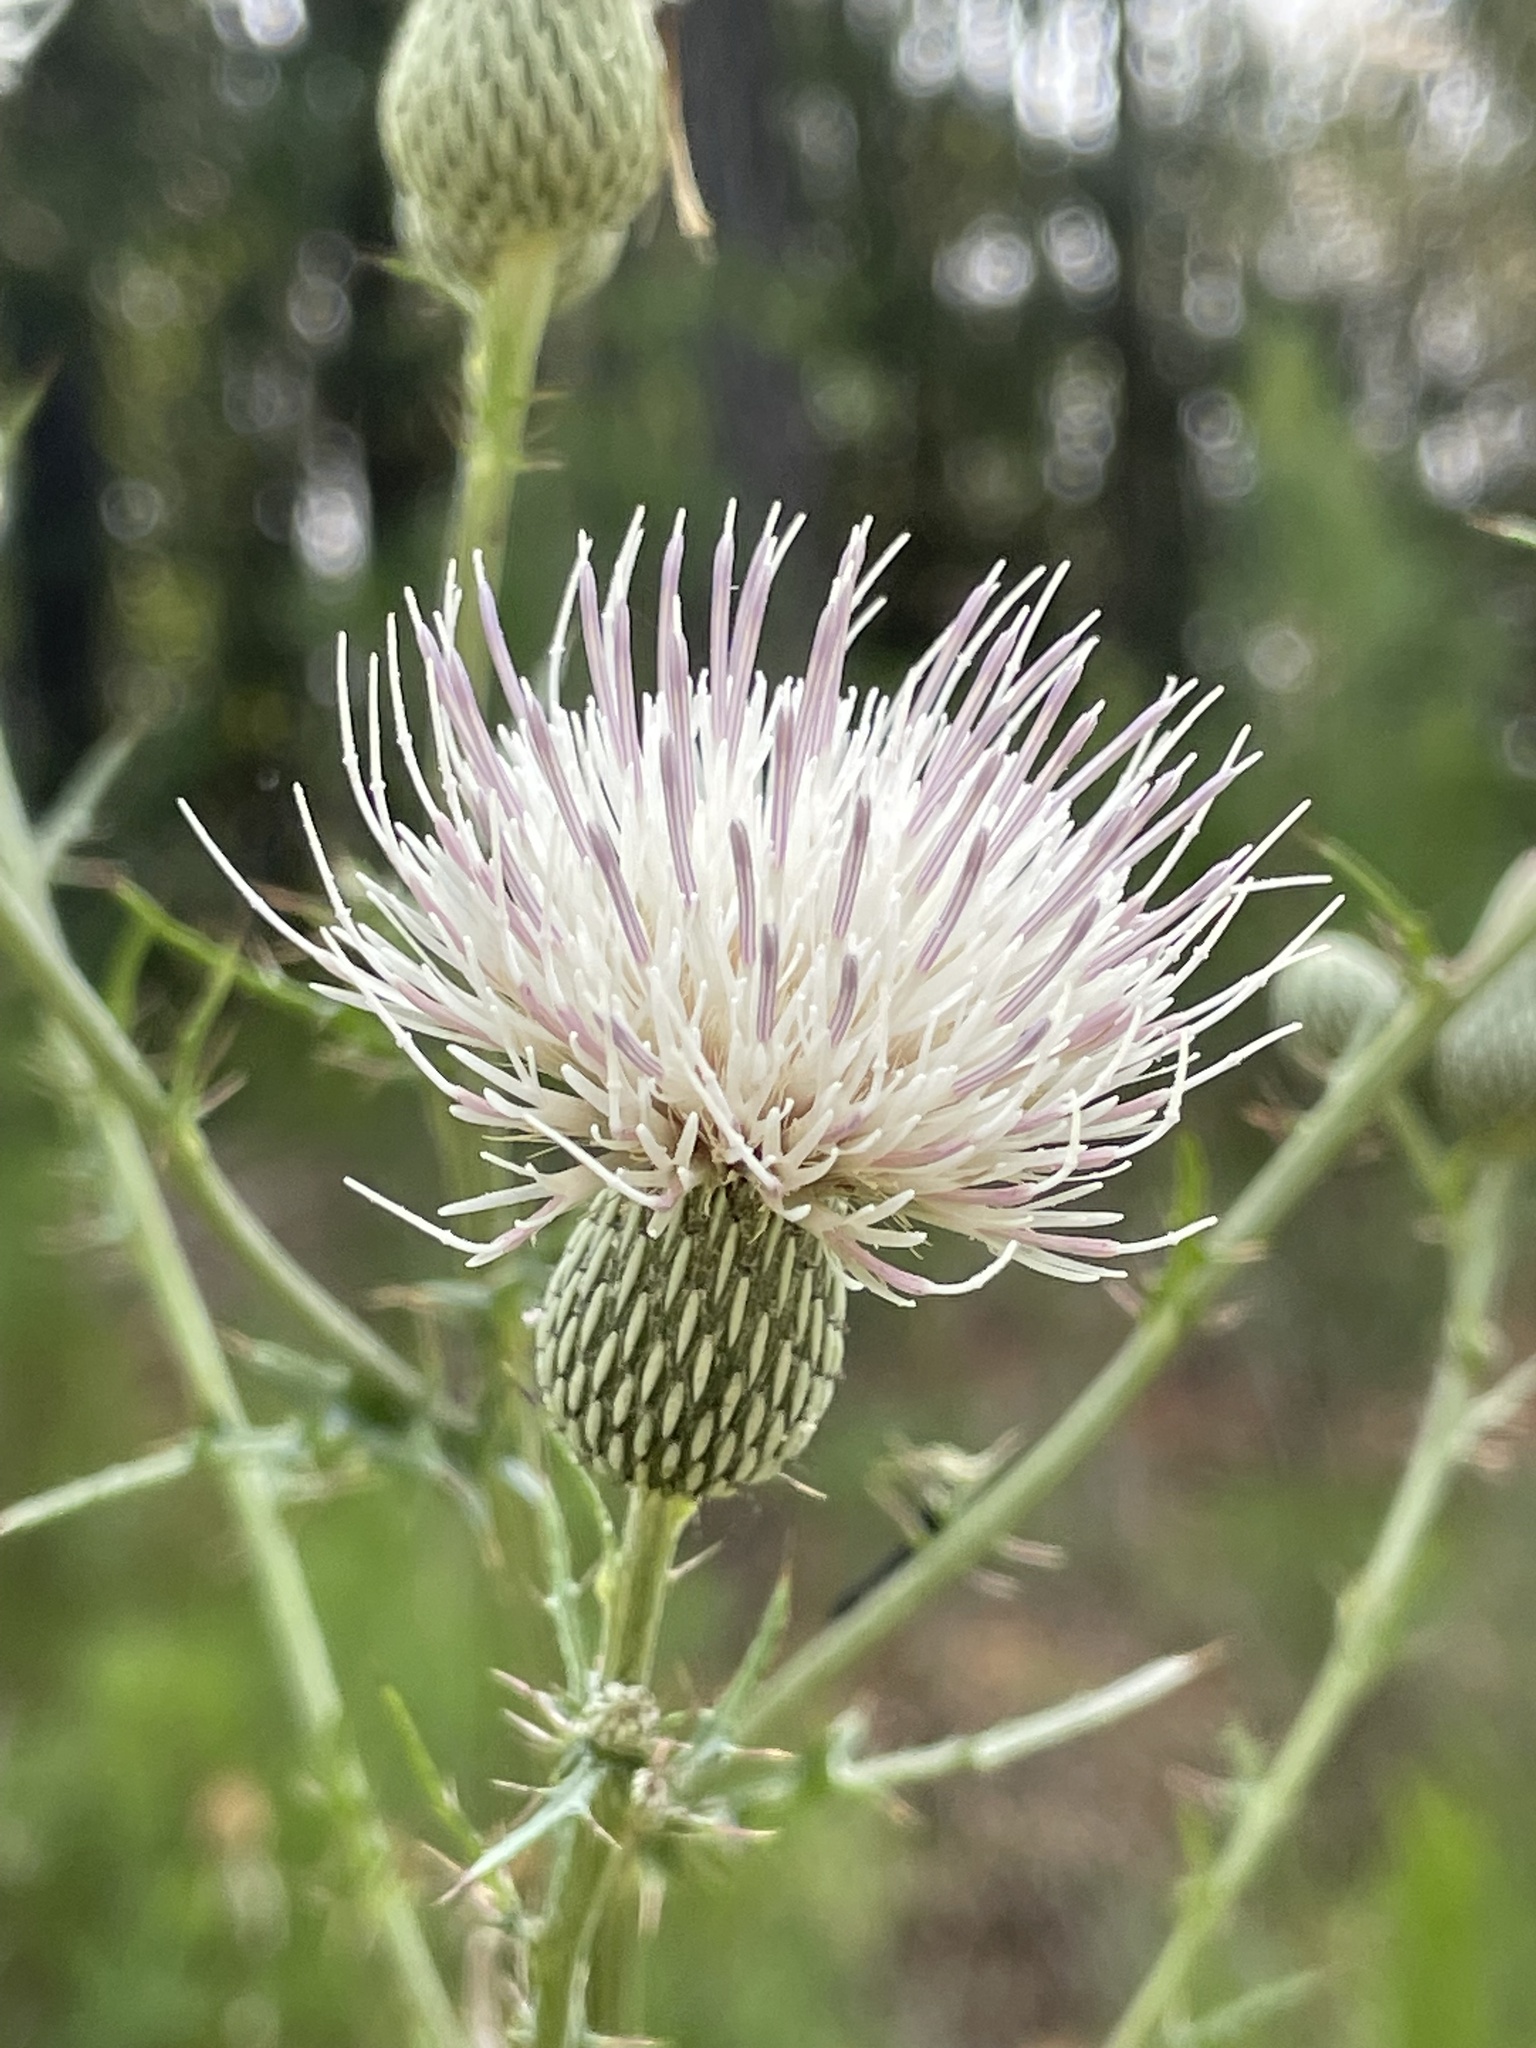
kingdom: Plantae
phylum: Tracheophyta
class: Magnoliopsida
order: Asterales
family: Asteraceae
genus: Cirsium
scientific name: Cirsium nuttalii
